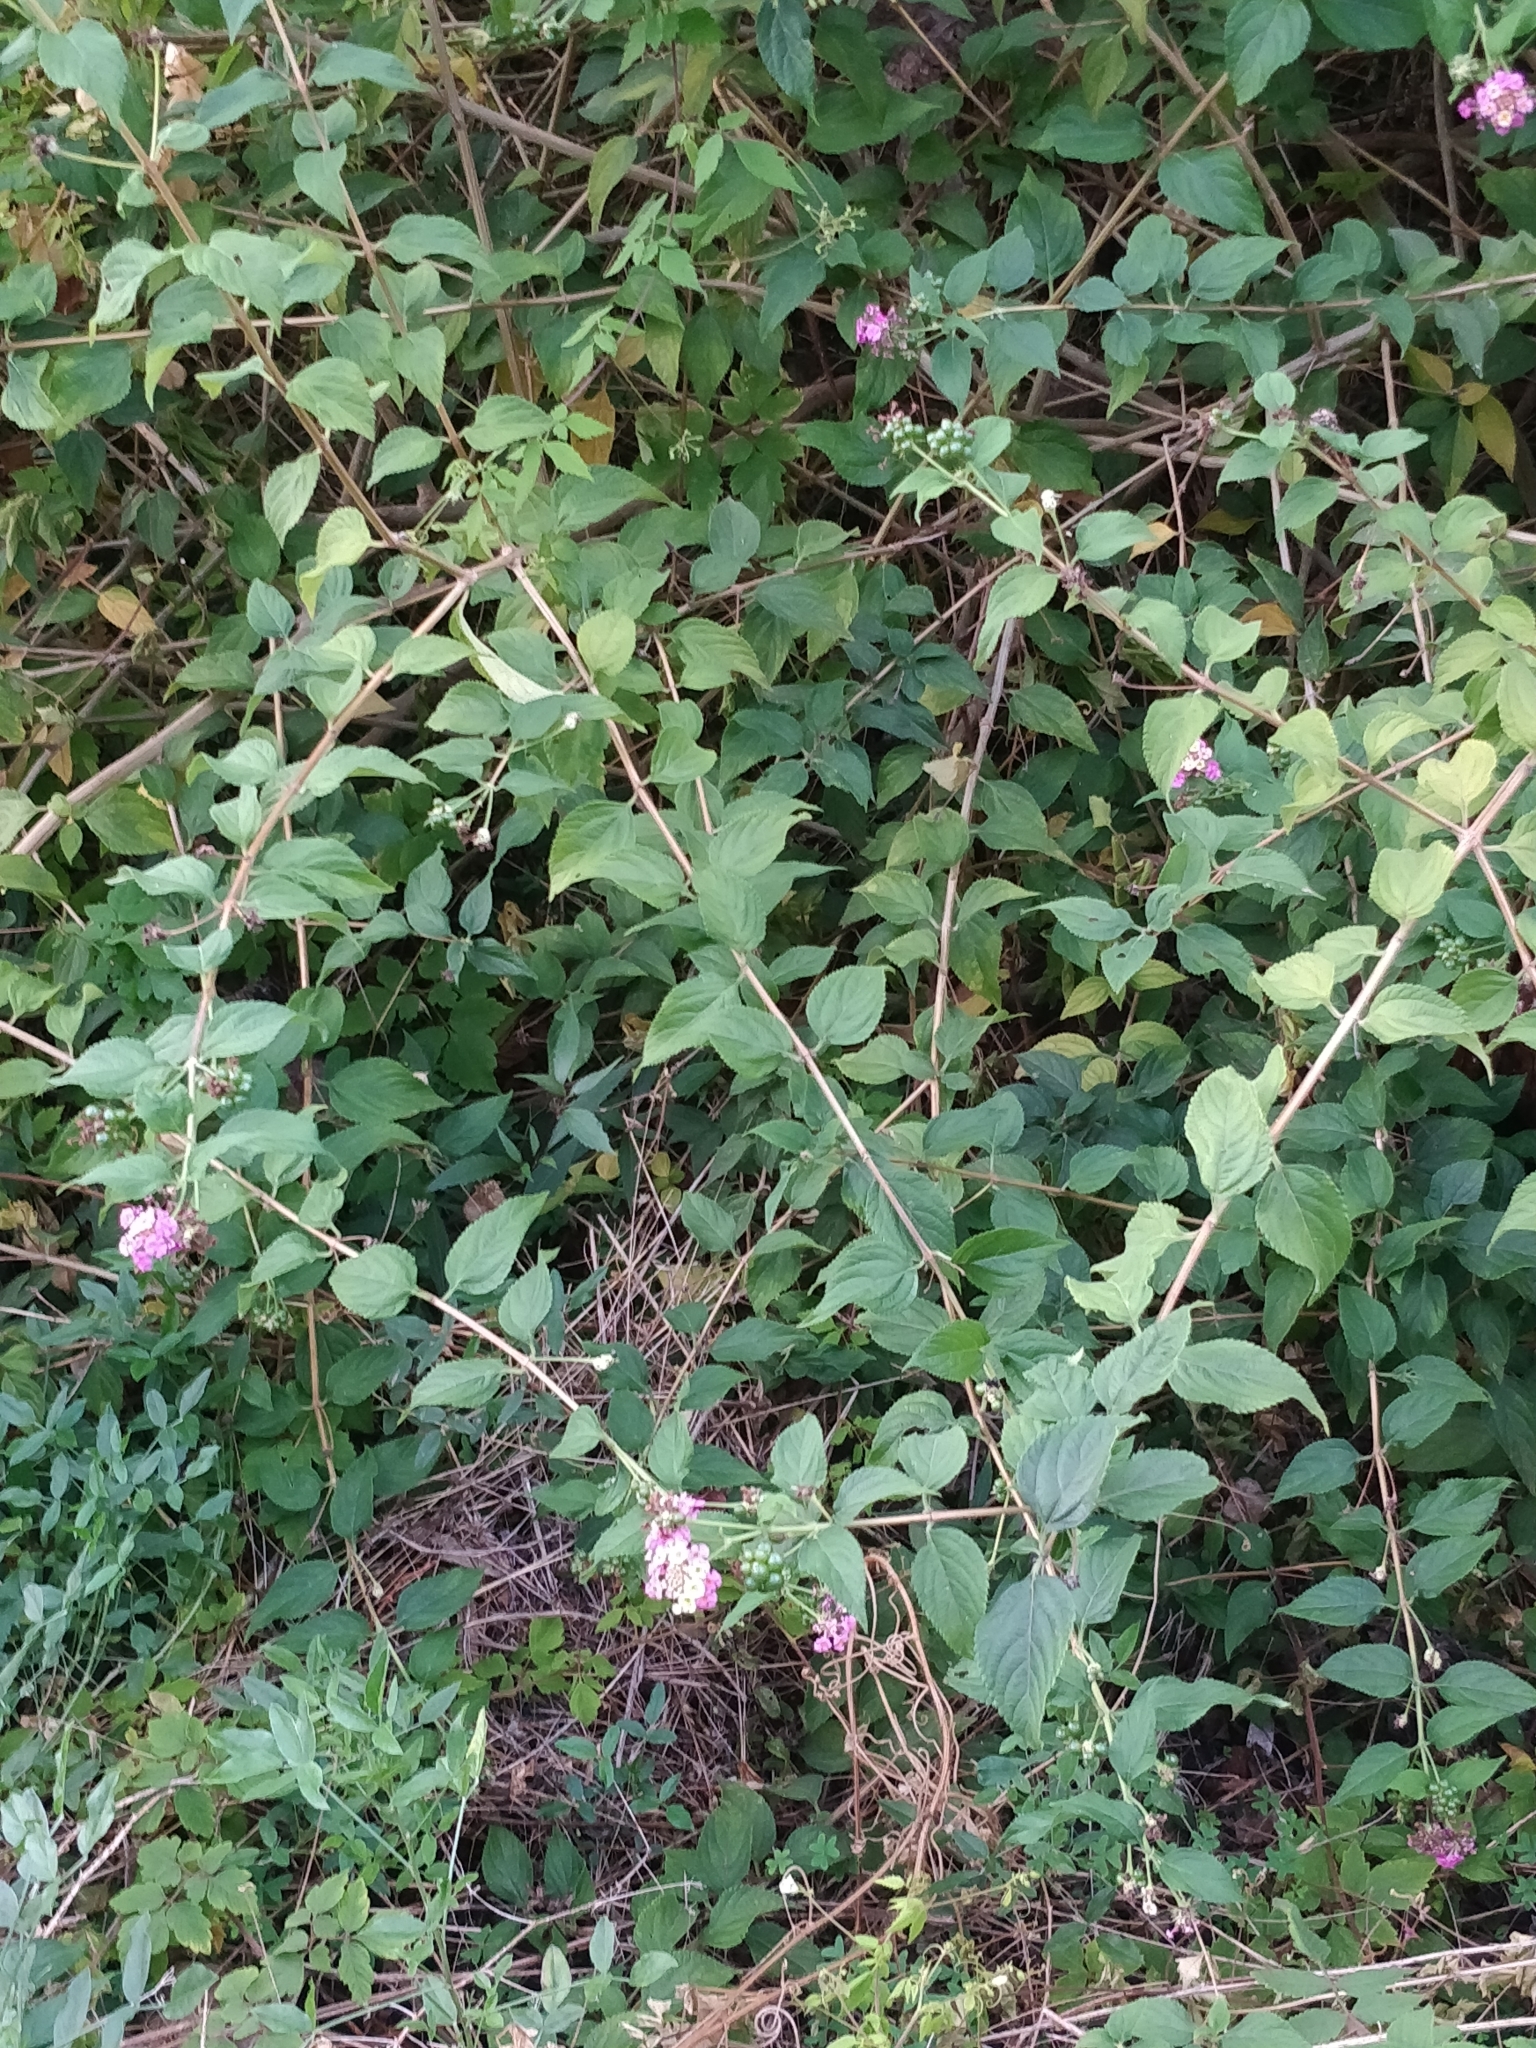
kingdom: Plantae
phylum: Tracheophyta
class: Magnoliopsida
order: Lamiales
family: Verbenaceae
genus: Lantana
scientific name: Lantana camara
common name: Lantana
